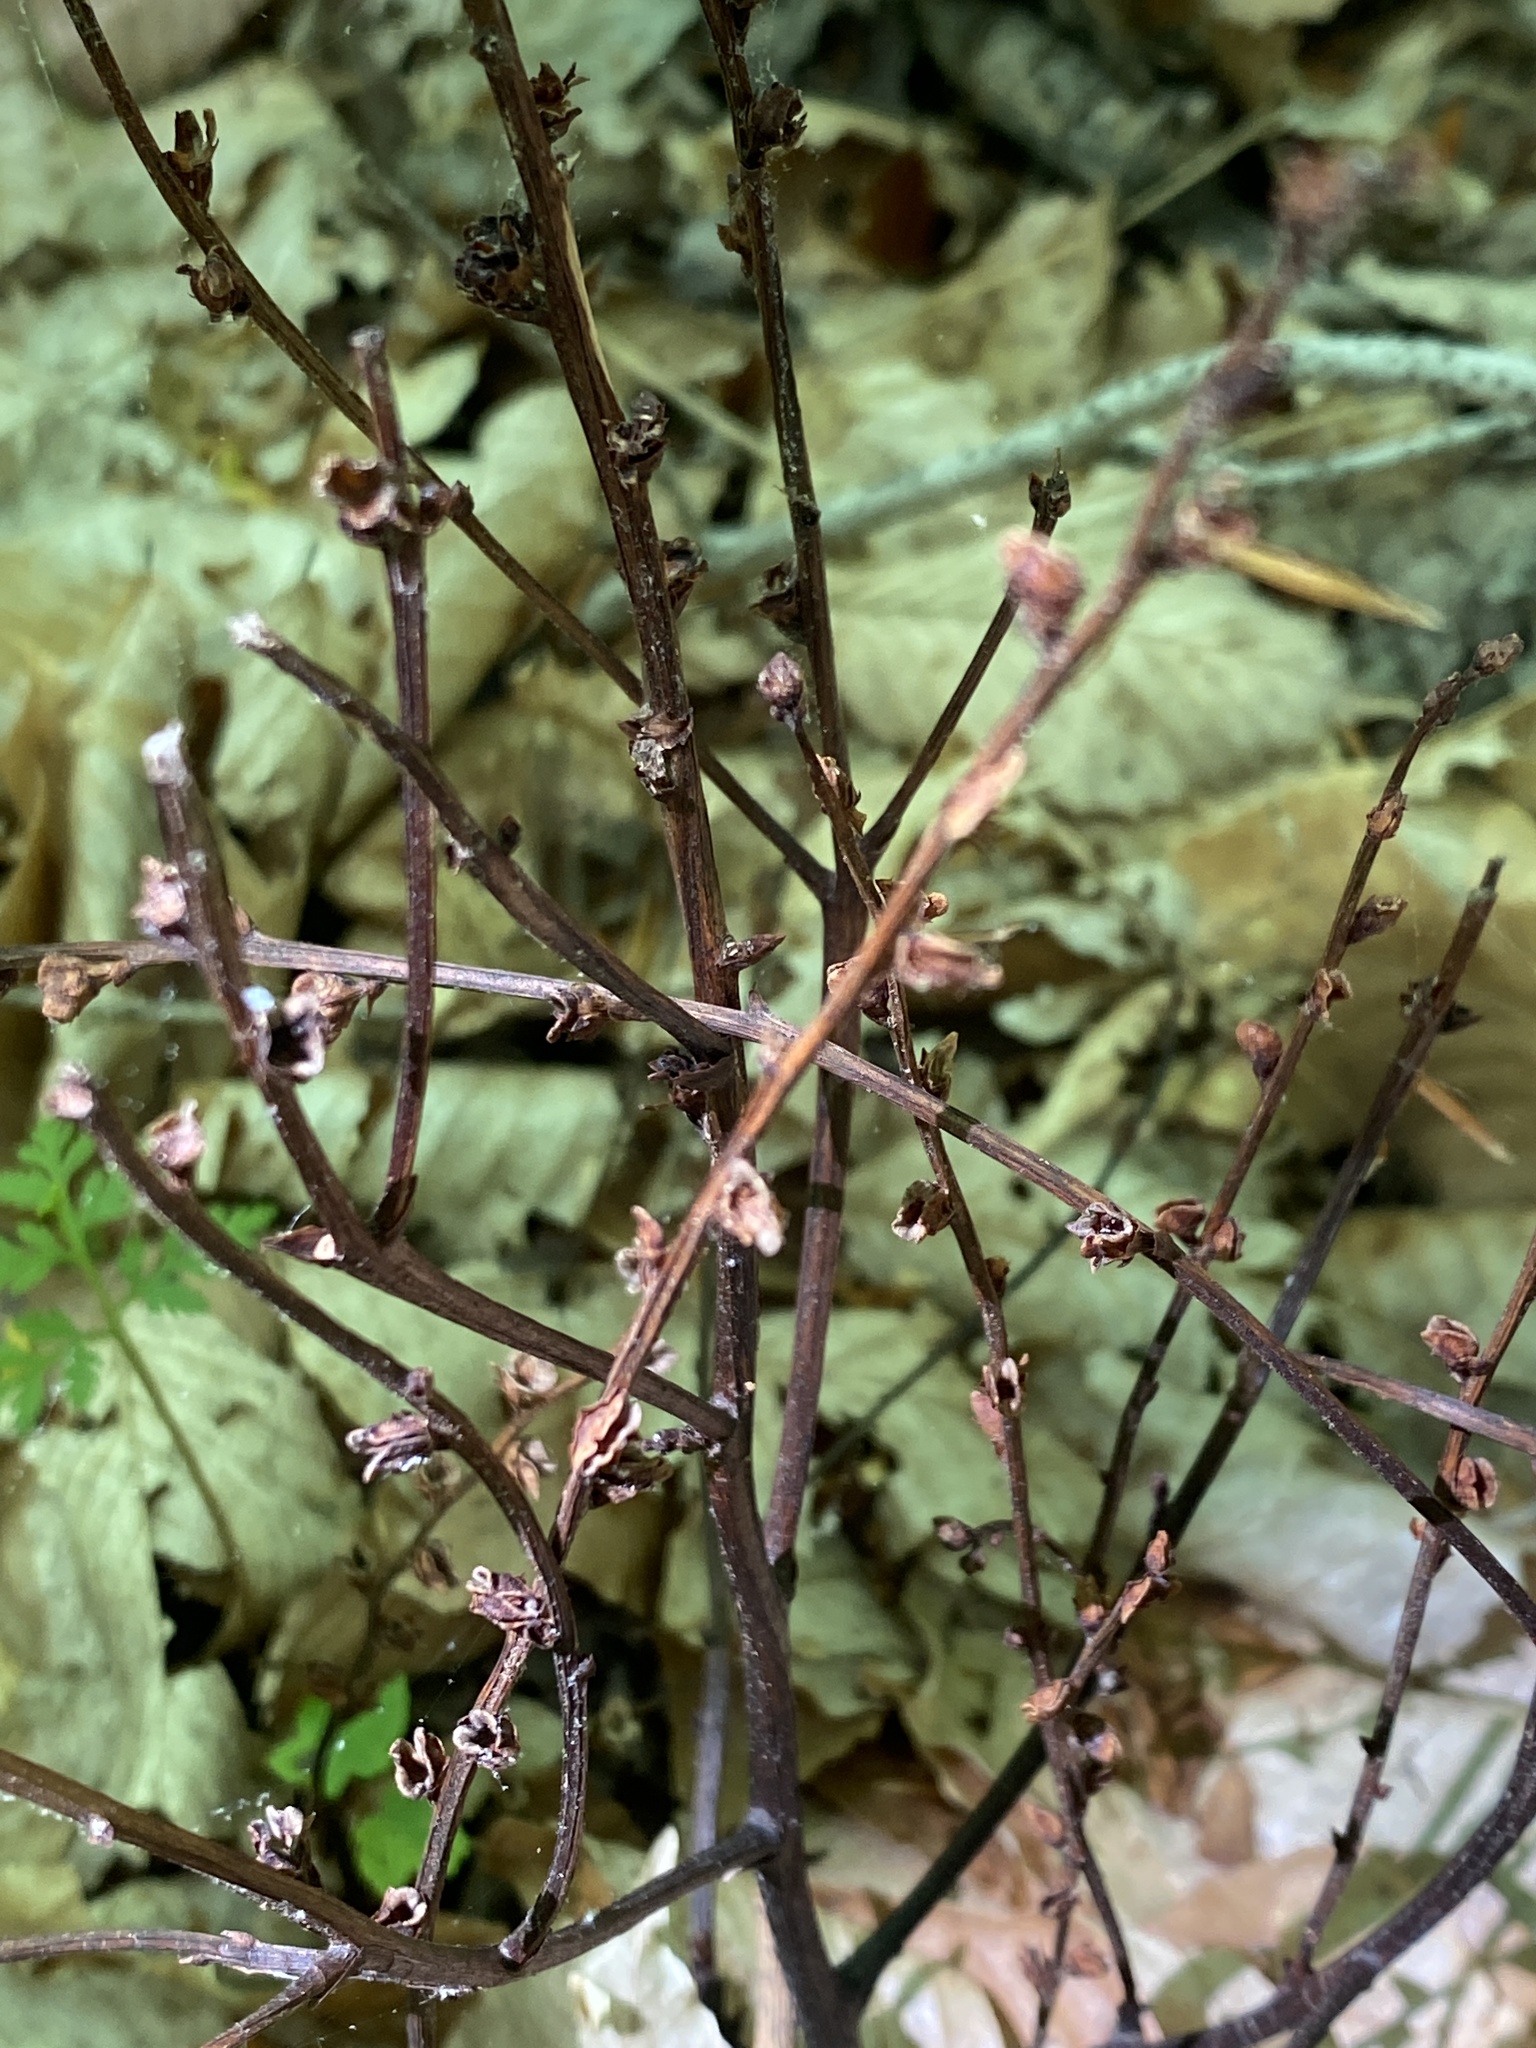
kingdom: Plantae
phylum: Tracheophyta
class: Magnoliopsida
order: Lamiales
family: Orobanchaceae
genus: Epifagus
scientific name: Epifagus virginiana
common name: Beechdrops
